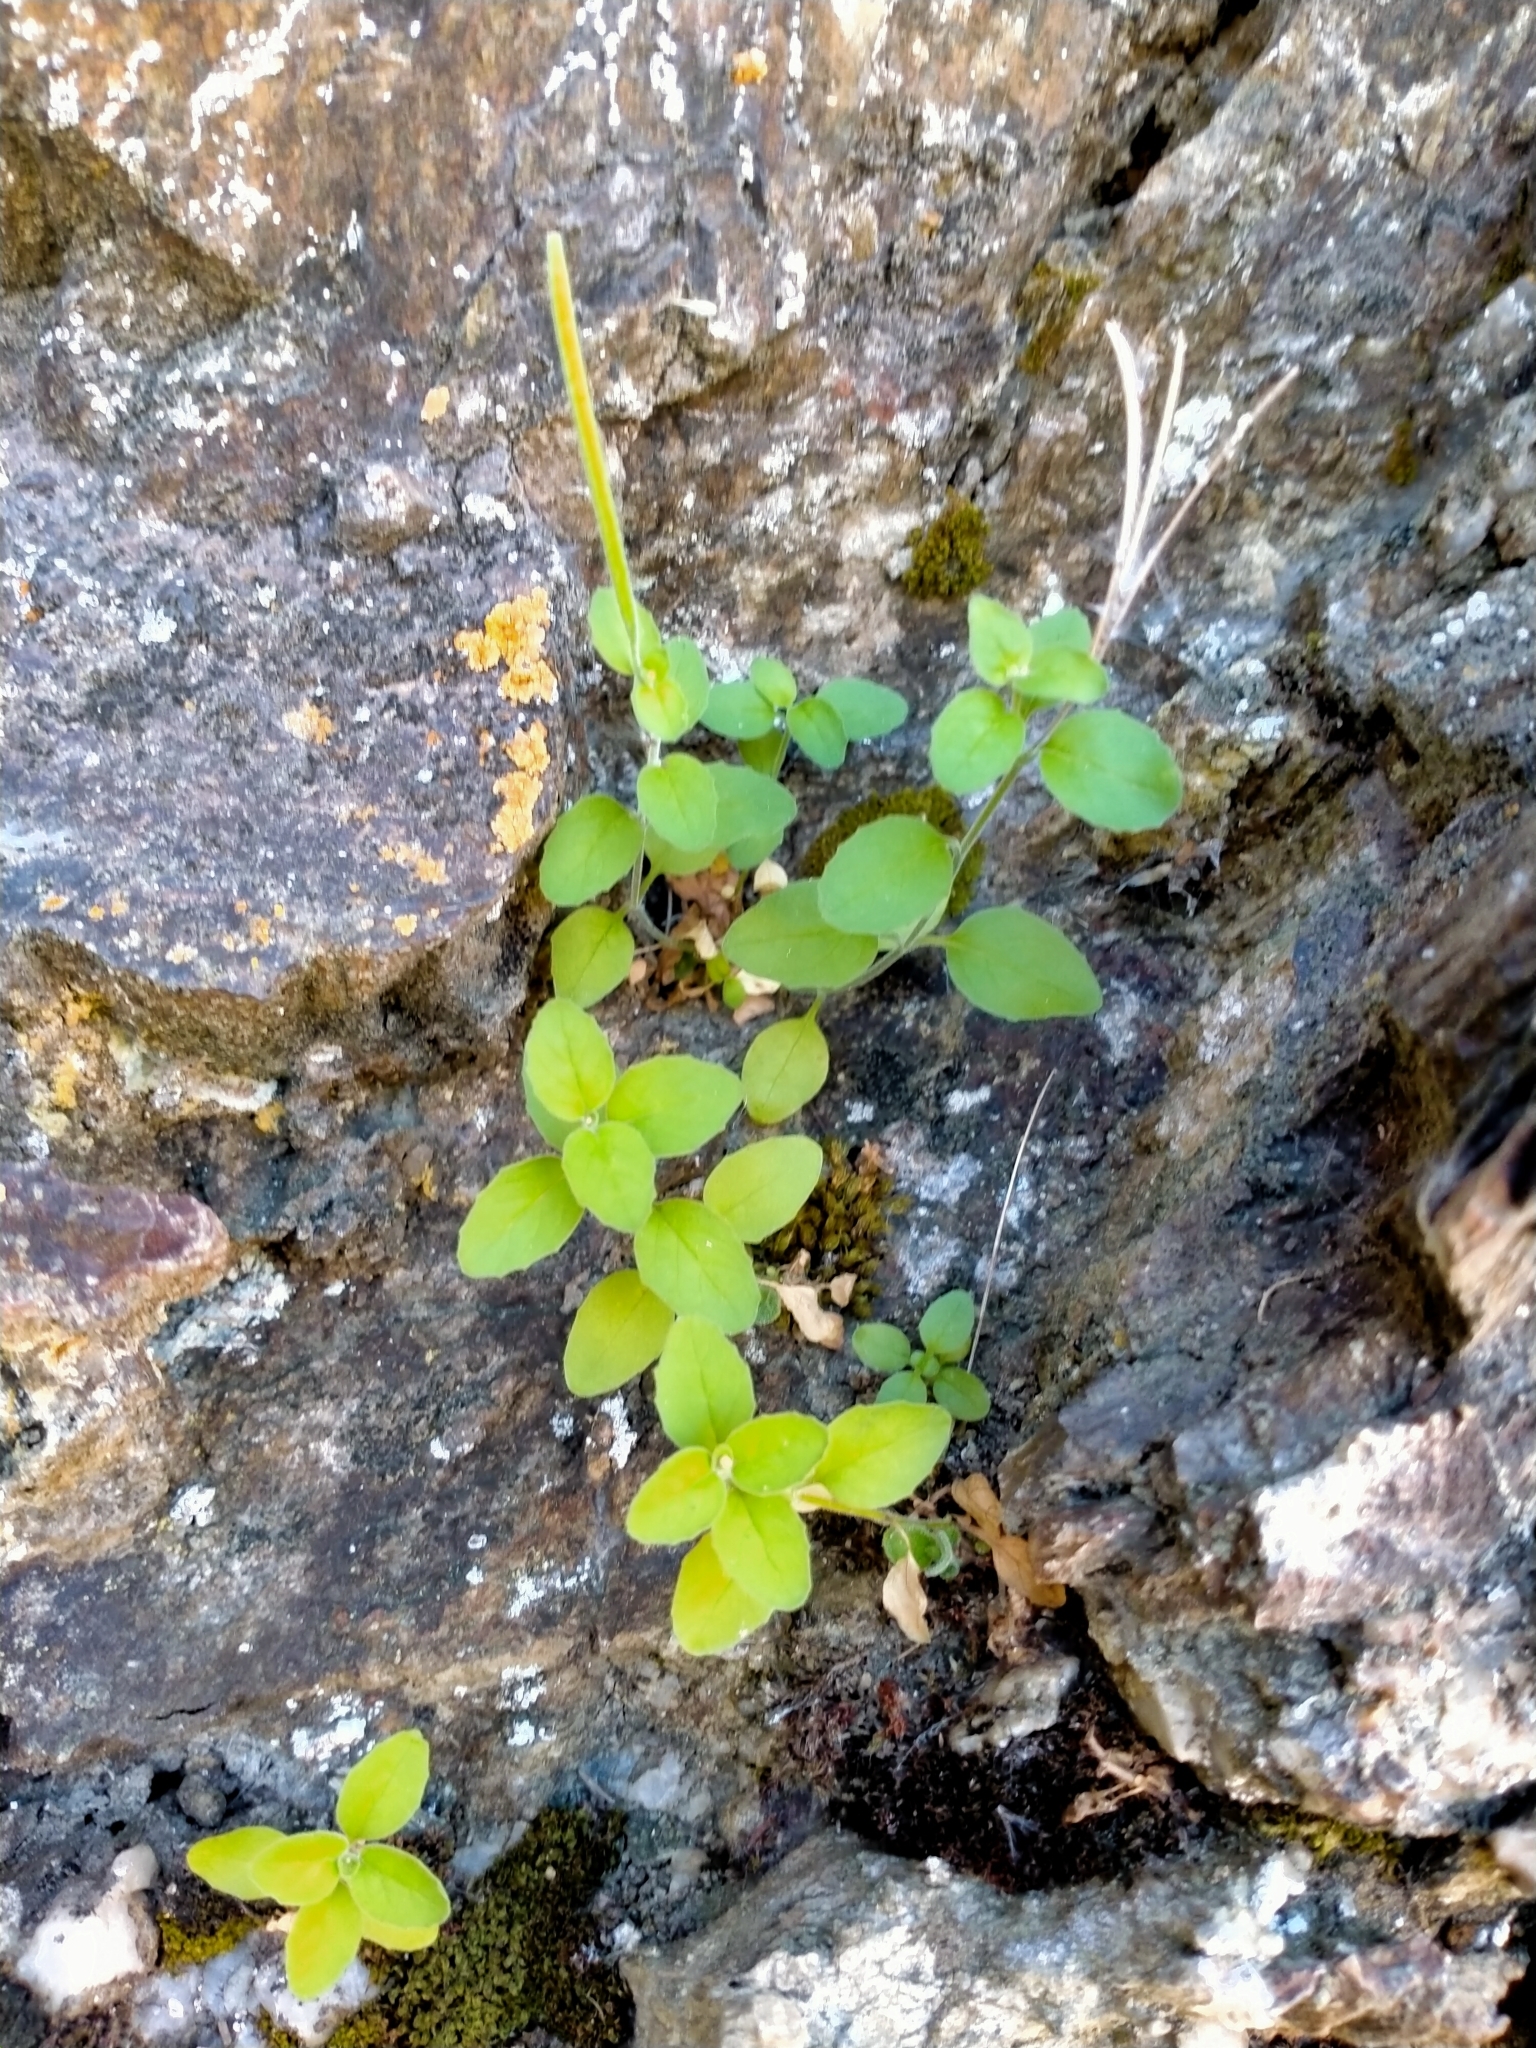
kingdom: Plantae
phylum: Tracheophyta
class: Magnoliopsida
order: Myrtales
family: Onagraceae
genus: Epilobium
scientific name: Epilobium pubens
